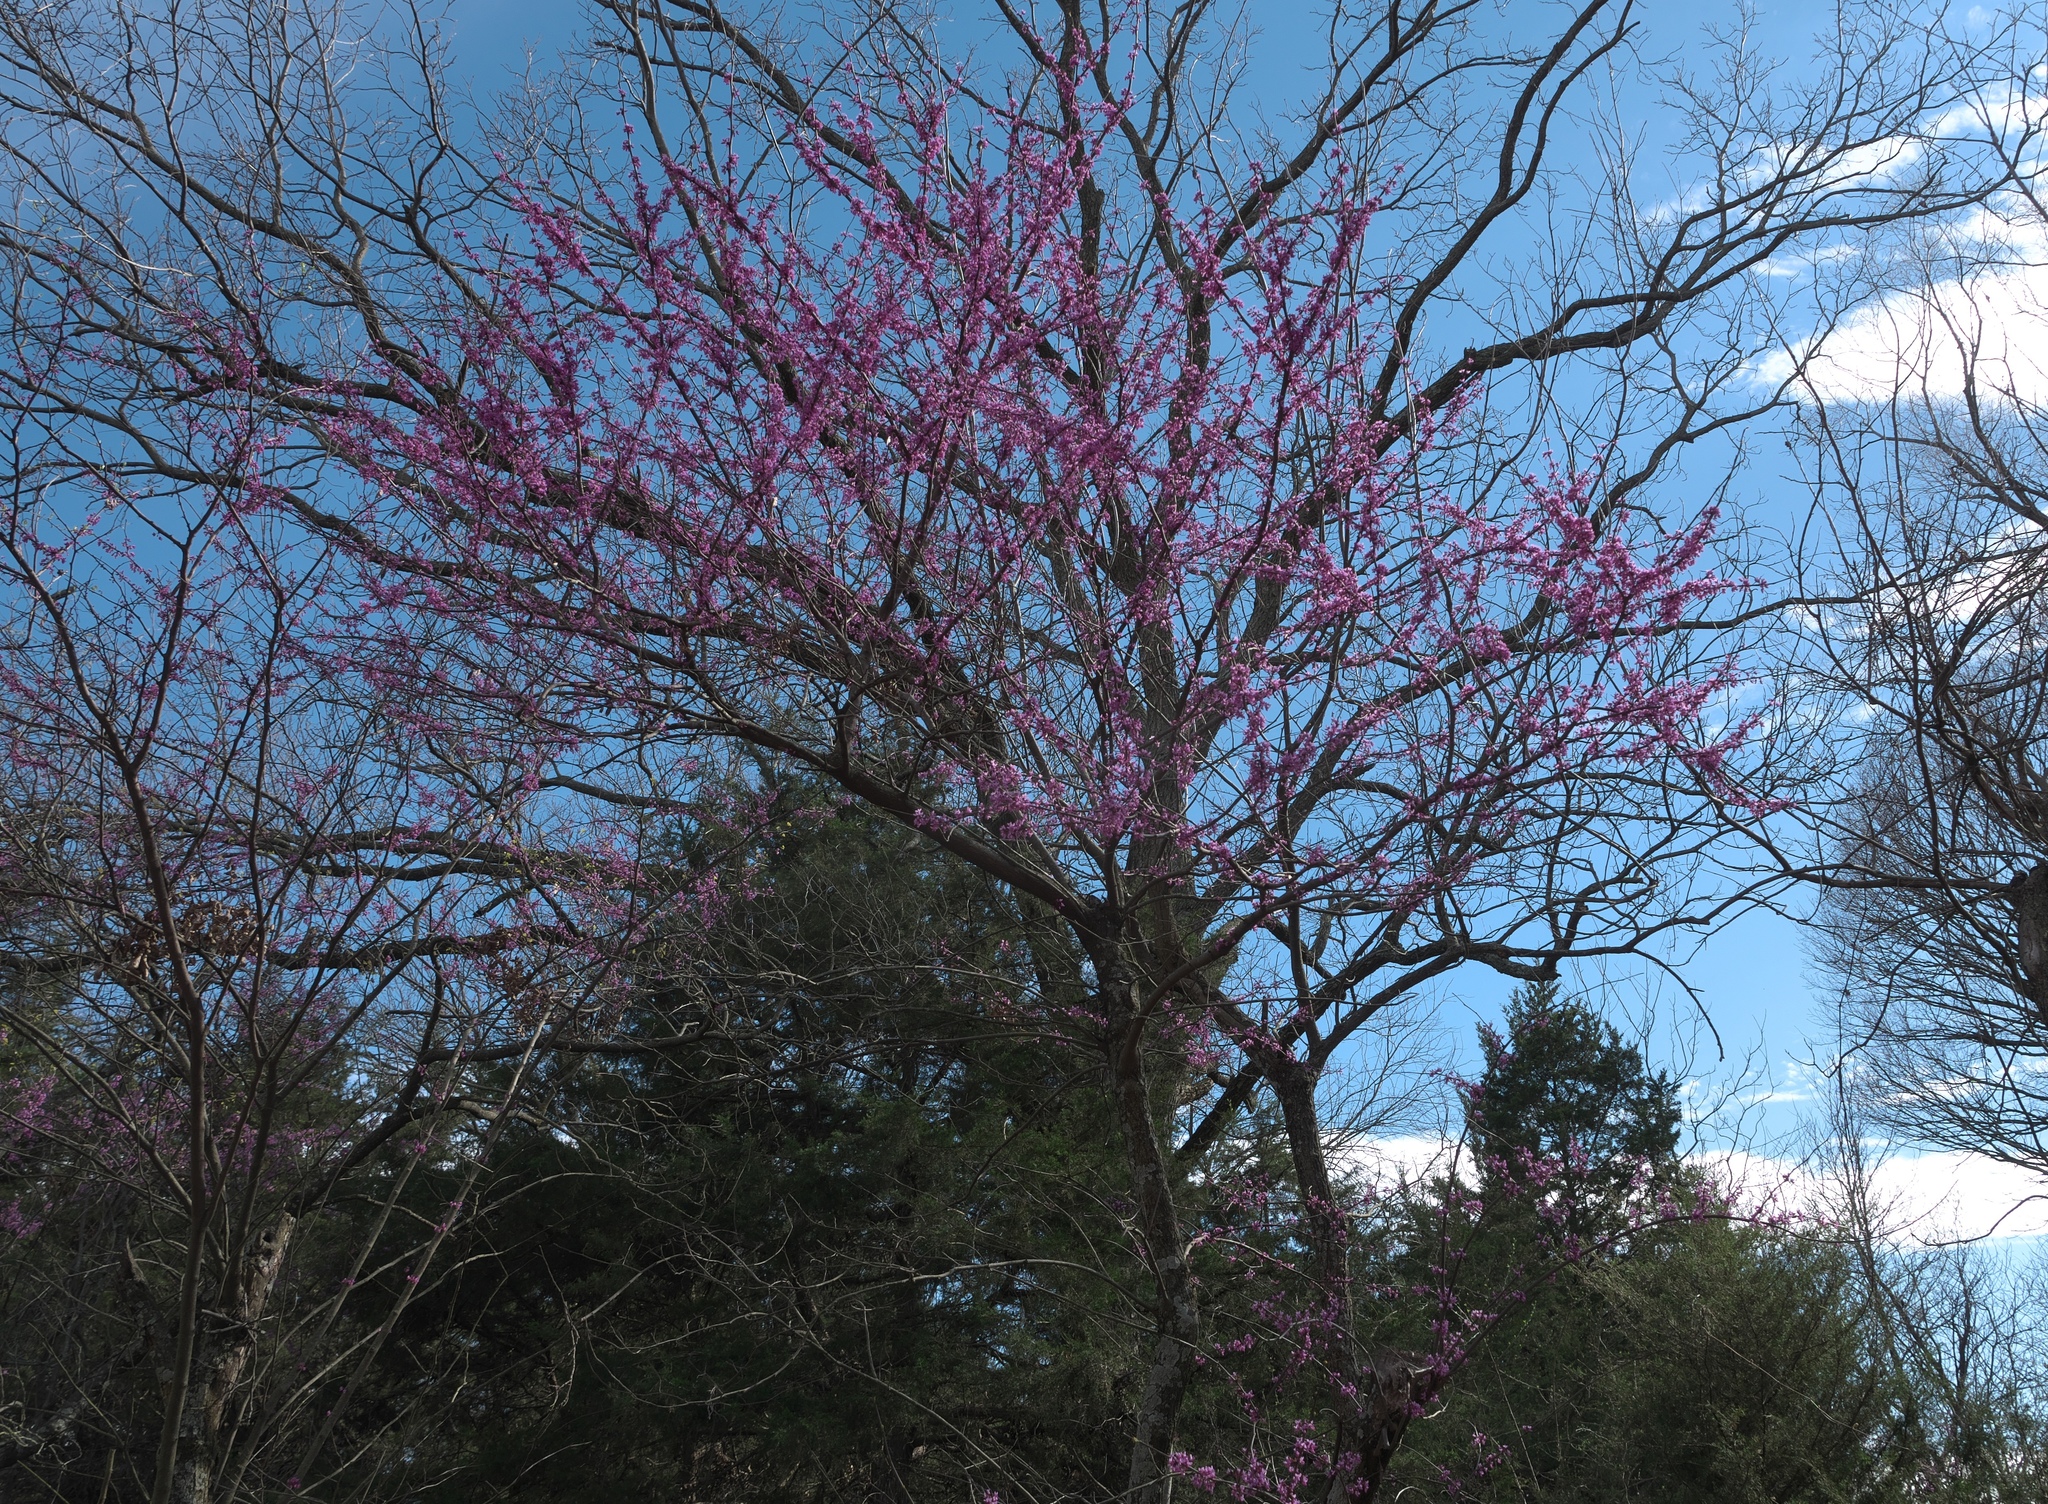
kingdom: Plantae
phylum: Tracheophyta
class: Magnoliopsida
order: Fabales
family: Fabaceae
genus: Cercis
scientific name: Cercis canadensis
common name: Eastern redbud
